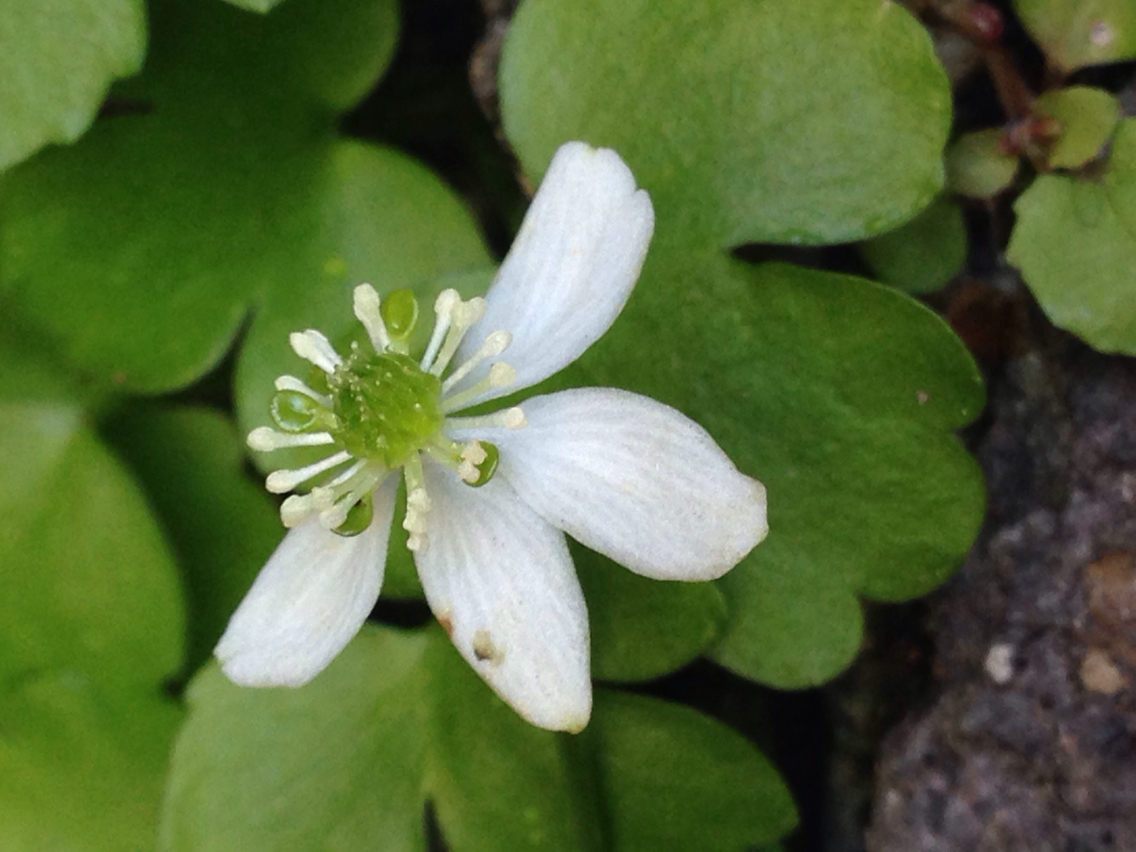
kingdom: Plantae
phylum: Tracheophyta
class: Magnoliopsida
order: Ranunculales
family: Ranunculaceae
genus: Kumlienia
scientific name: Kumlienia hystricula
